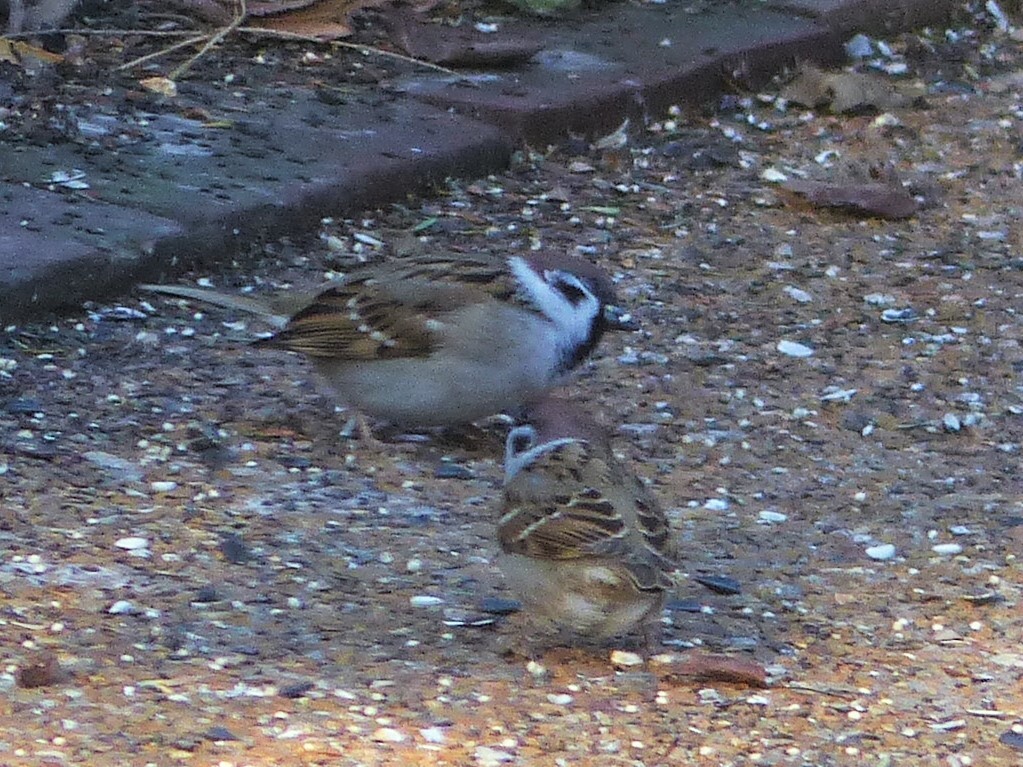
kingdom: Animalia
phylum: Chordata
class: Aves
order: Passeriformes
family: Passeridae
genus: Passer
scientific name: Passer montanus
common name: Eurasian tree sparrow
